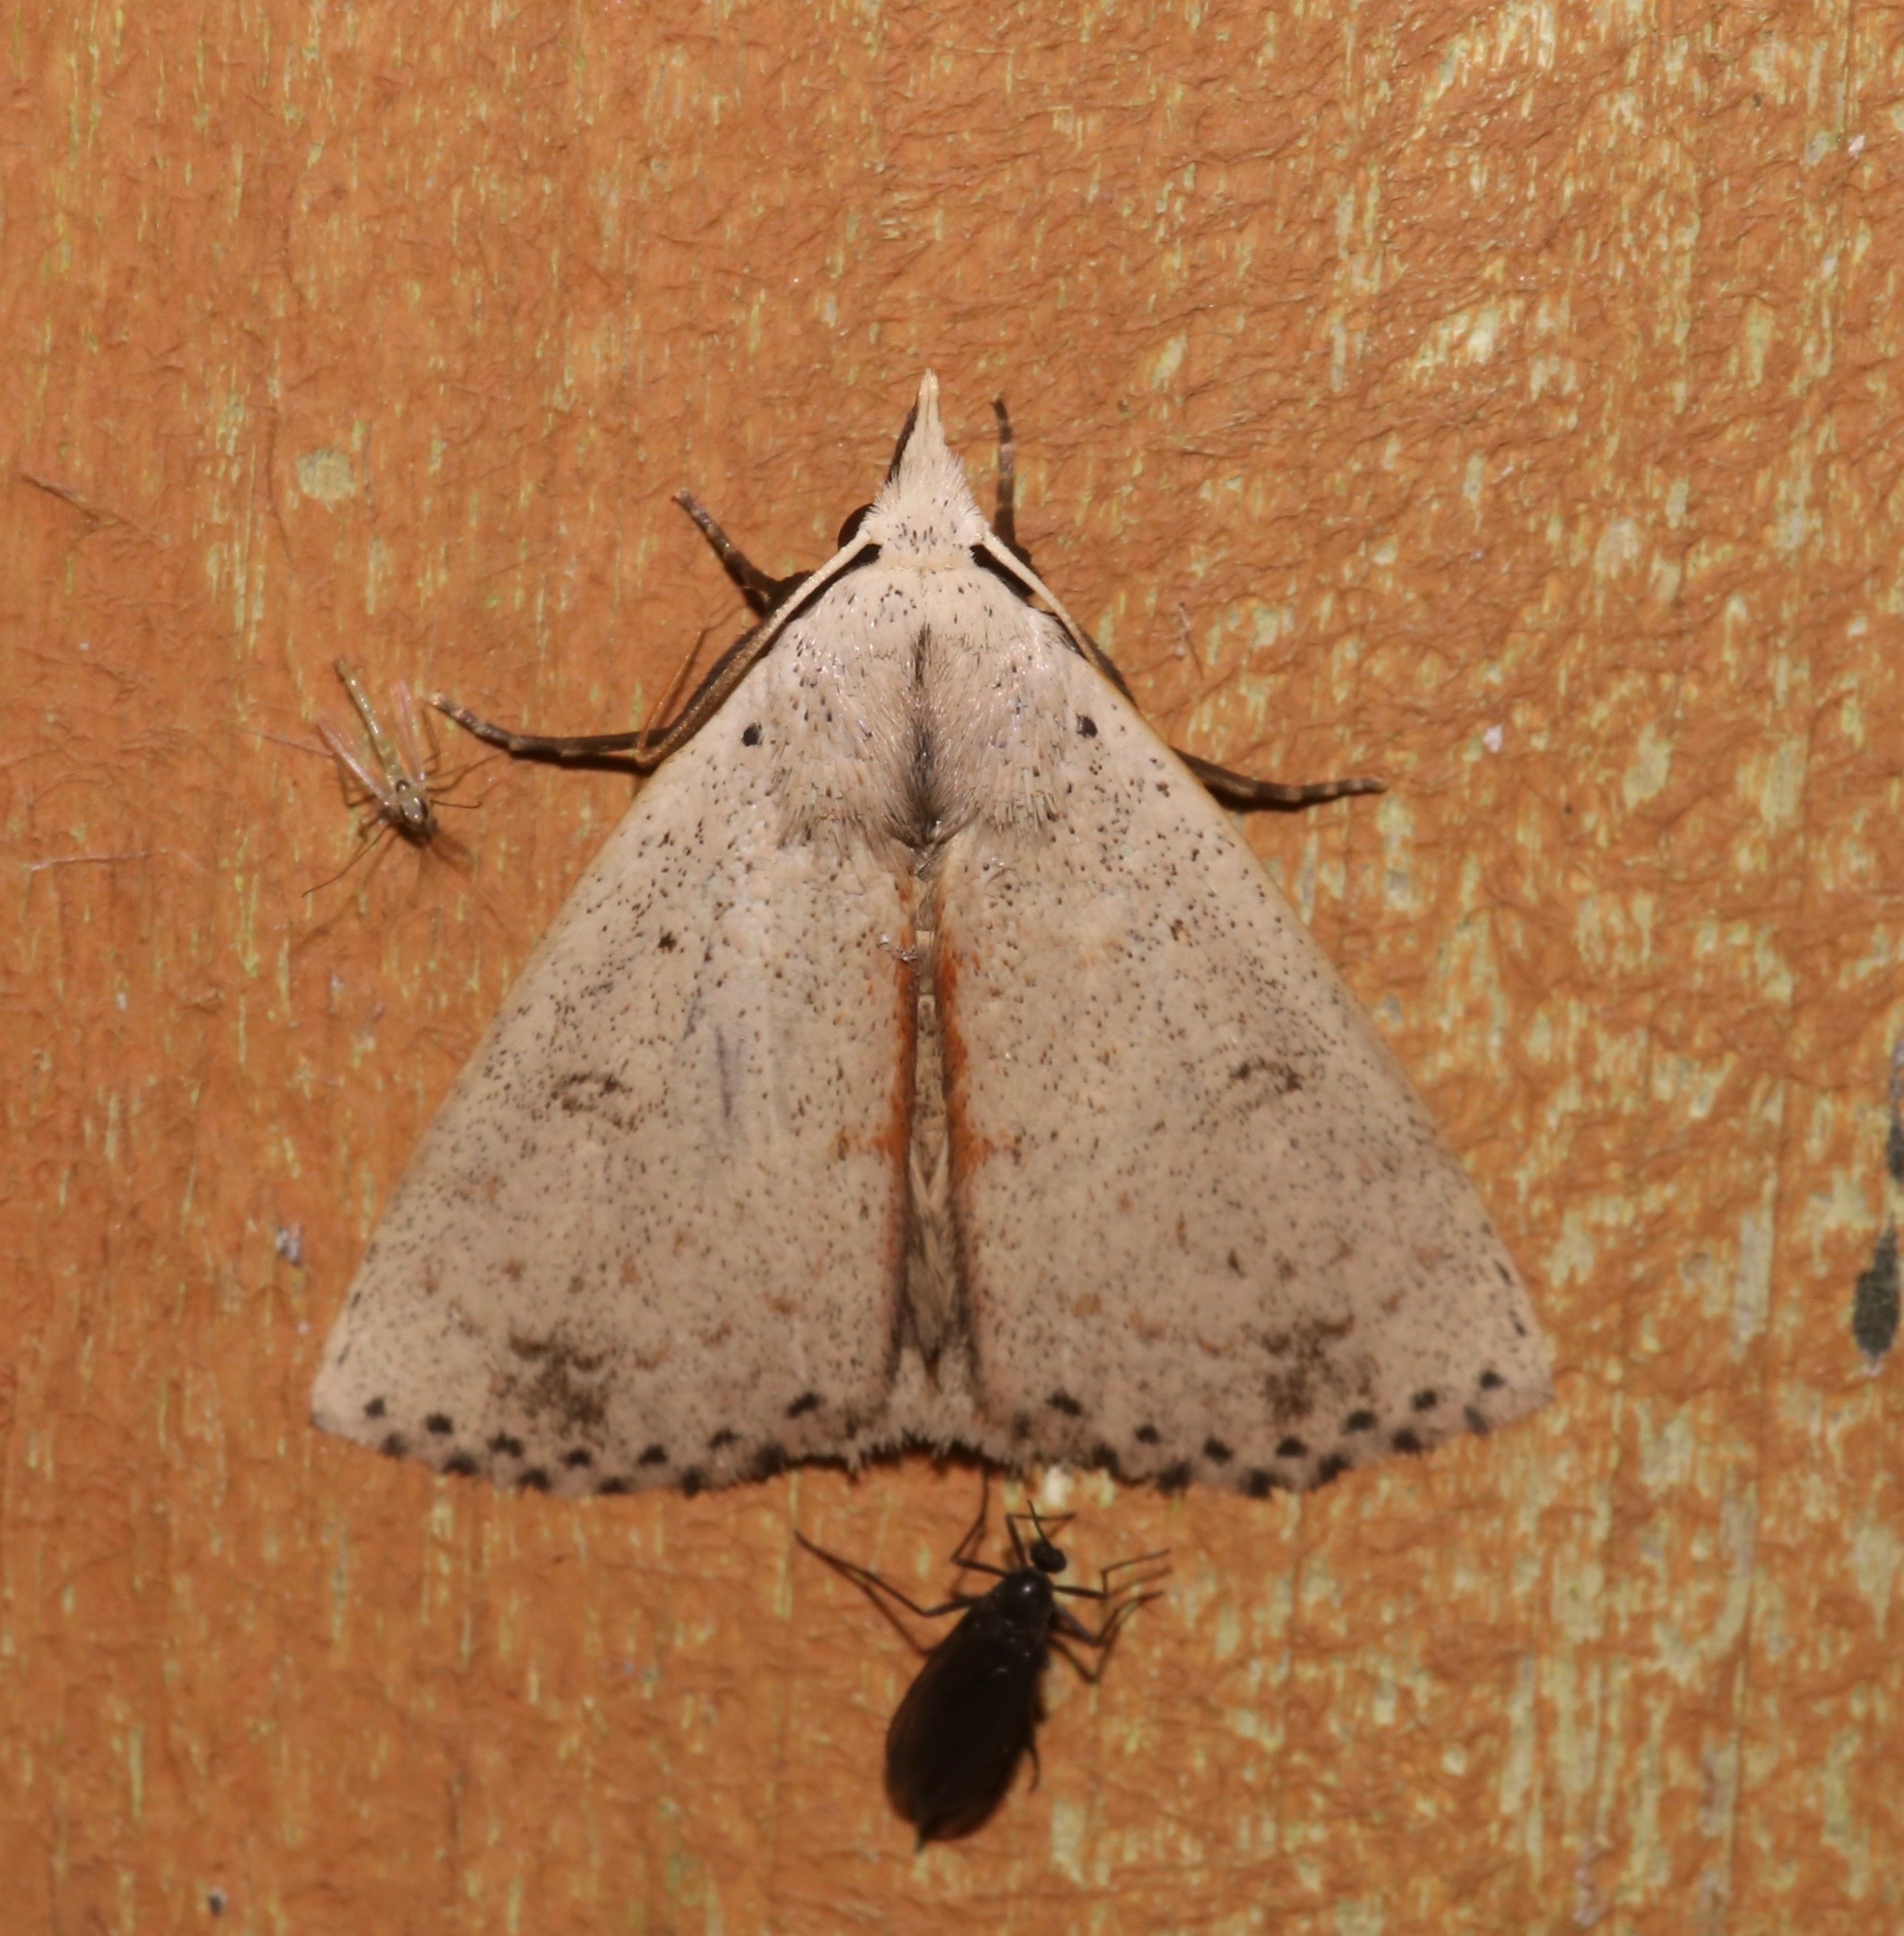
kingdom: Animalia
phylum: Arthropoda
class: Insecta
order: Lepidoptera
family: Erebidae
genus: Scolecocampa
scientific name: Scolecocampa liburna
